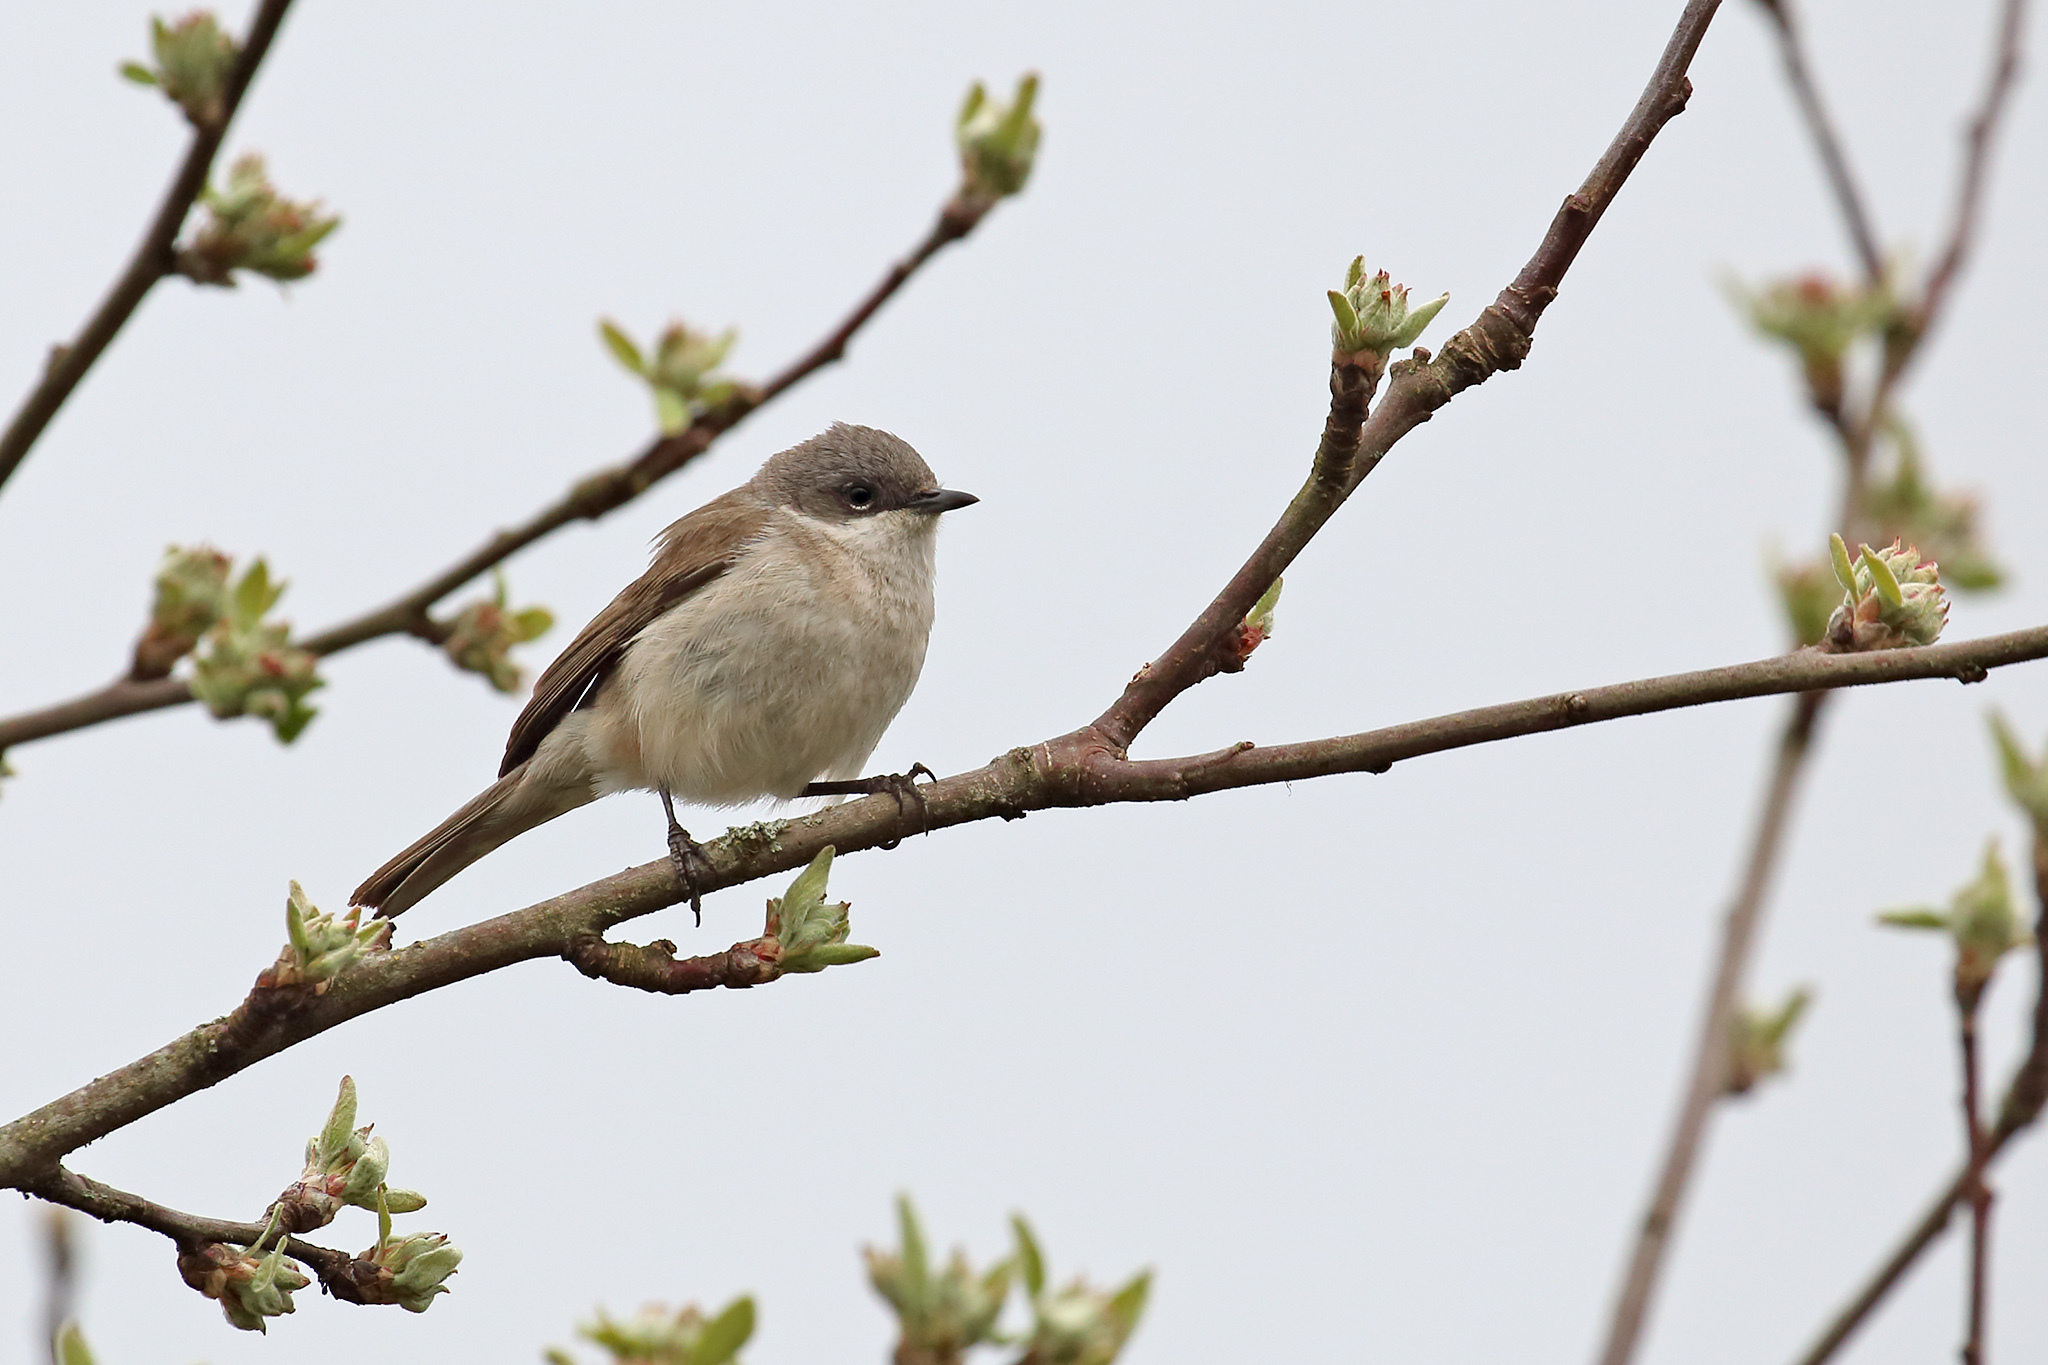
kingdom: Animalia
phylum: Chordata
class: Aves
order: Passeriformes
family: Sylviidae
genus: Sylvia
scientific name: Sylvia curruca
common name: Lesser whitethroat
